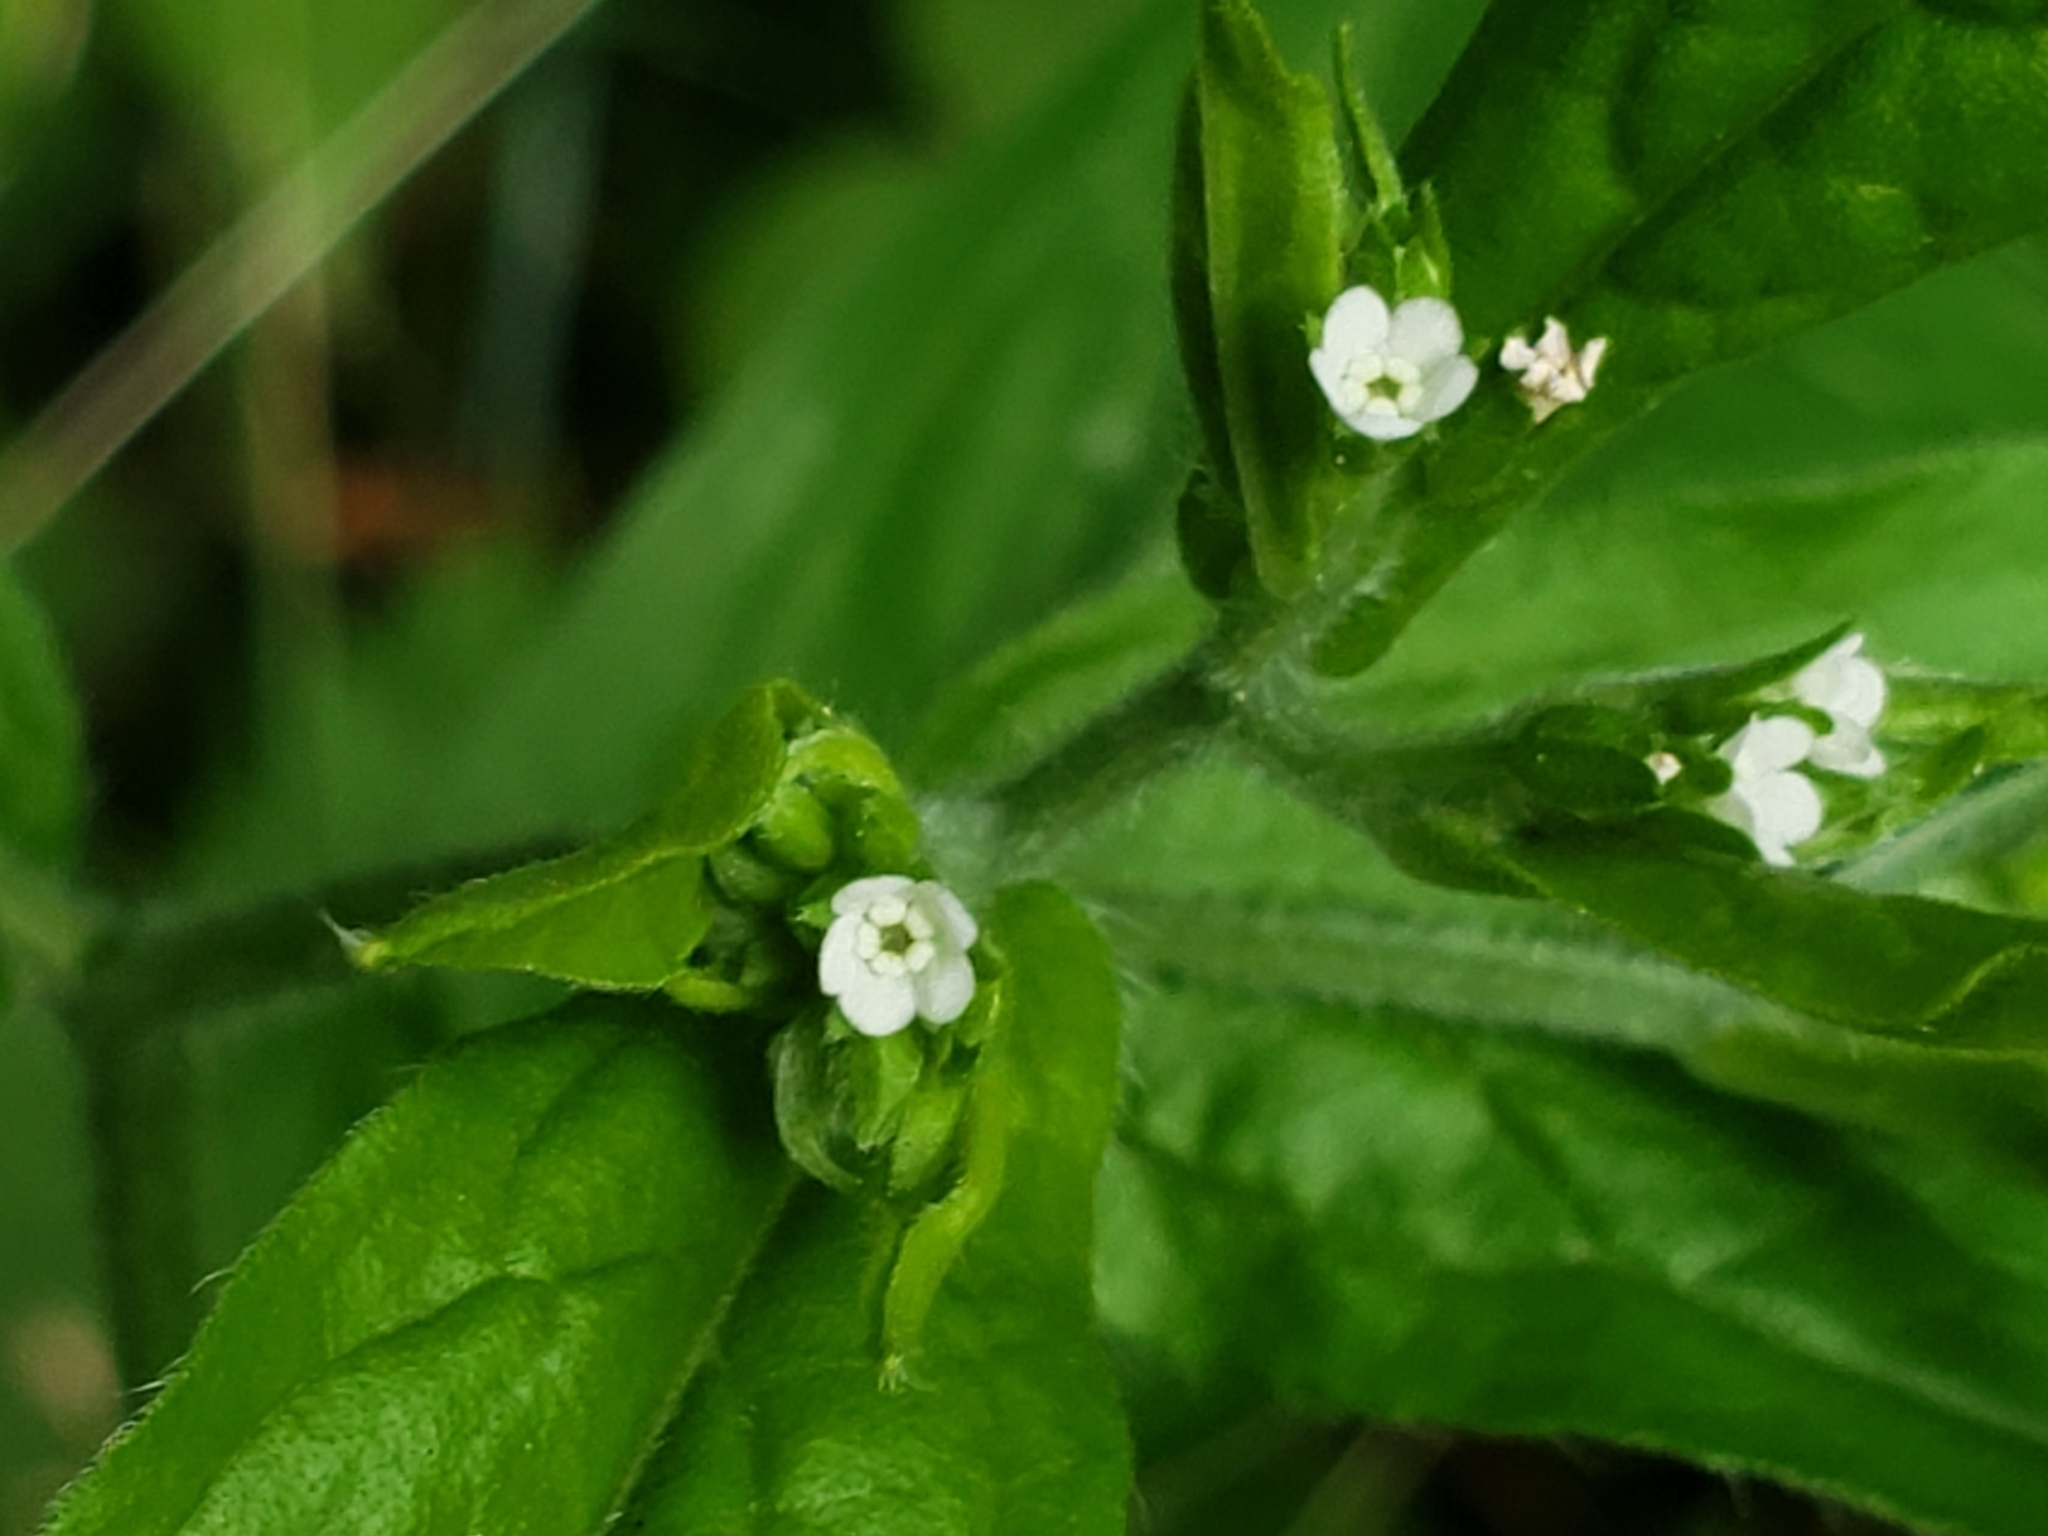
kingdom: Plantae
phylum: Tracheophyta
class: Magnoliopsida
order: Boraginales
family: Boraginaceae
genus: Hackelia
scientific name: Hackelia virginiana
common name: Beggar's-lice
